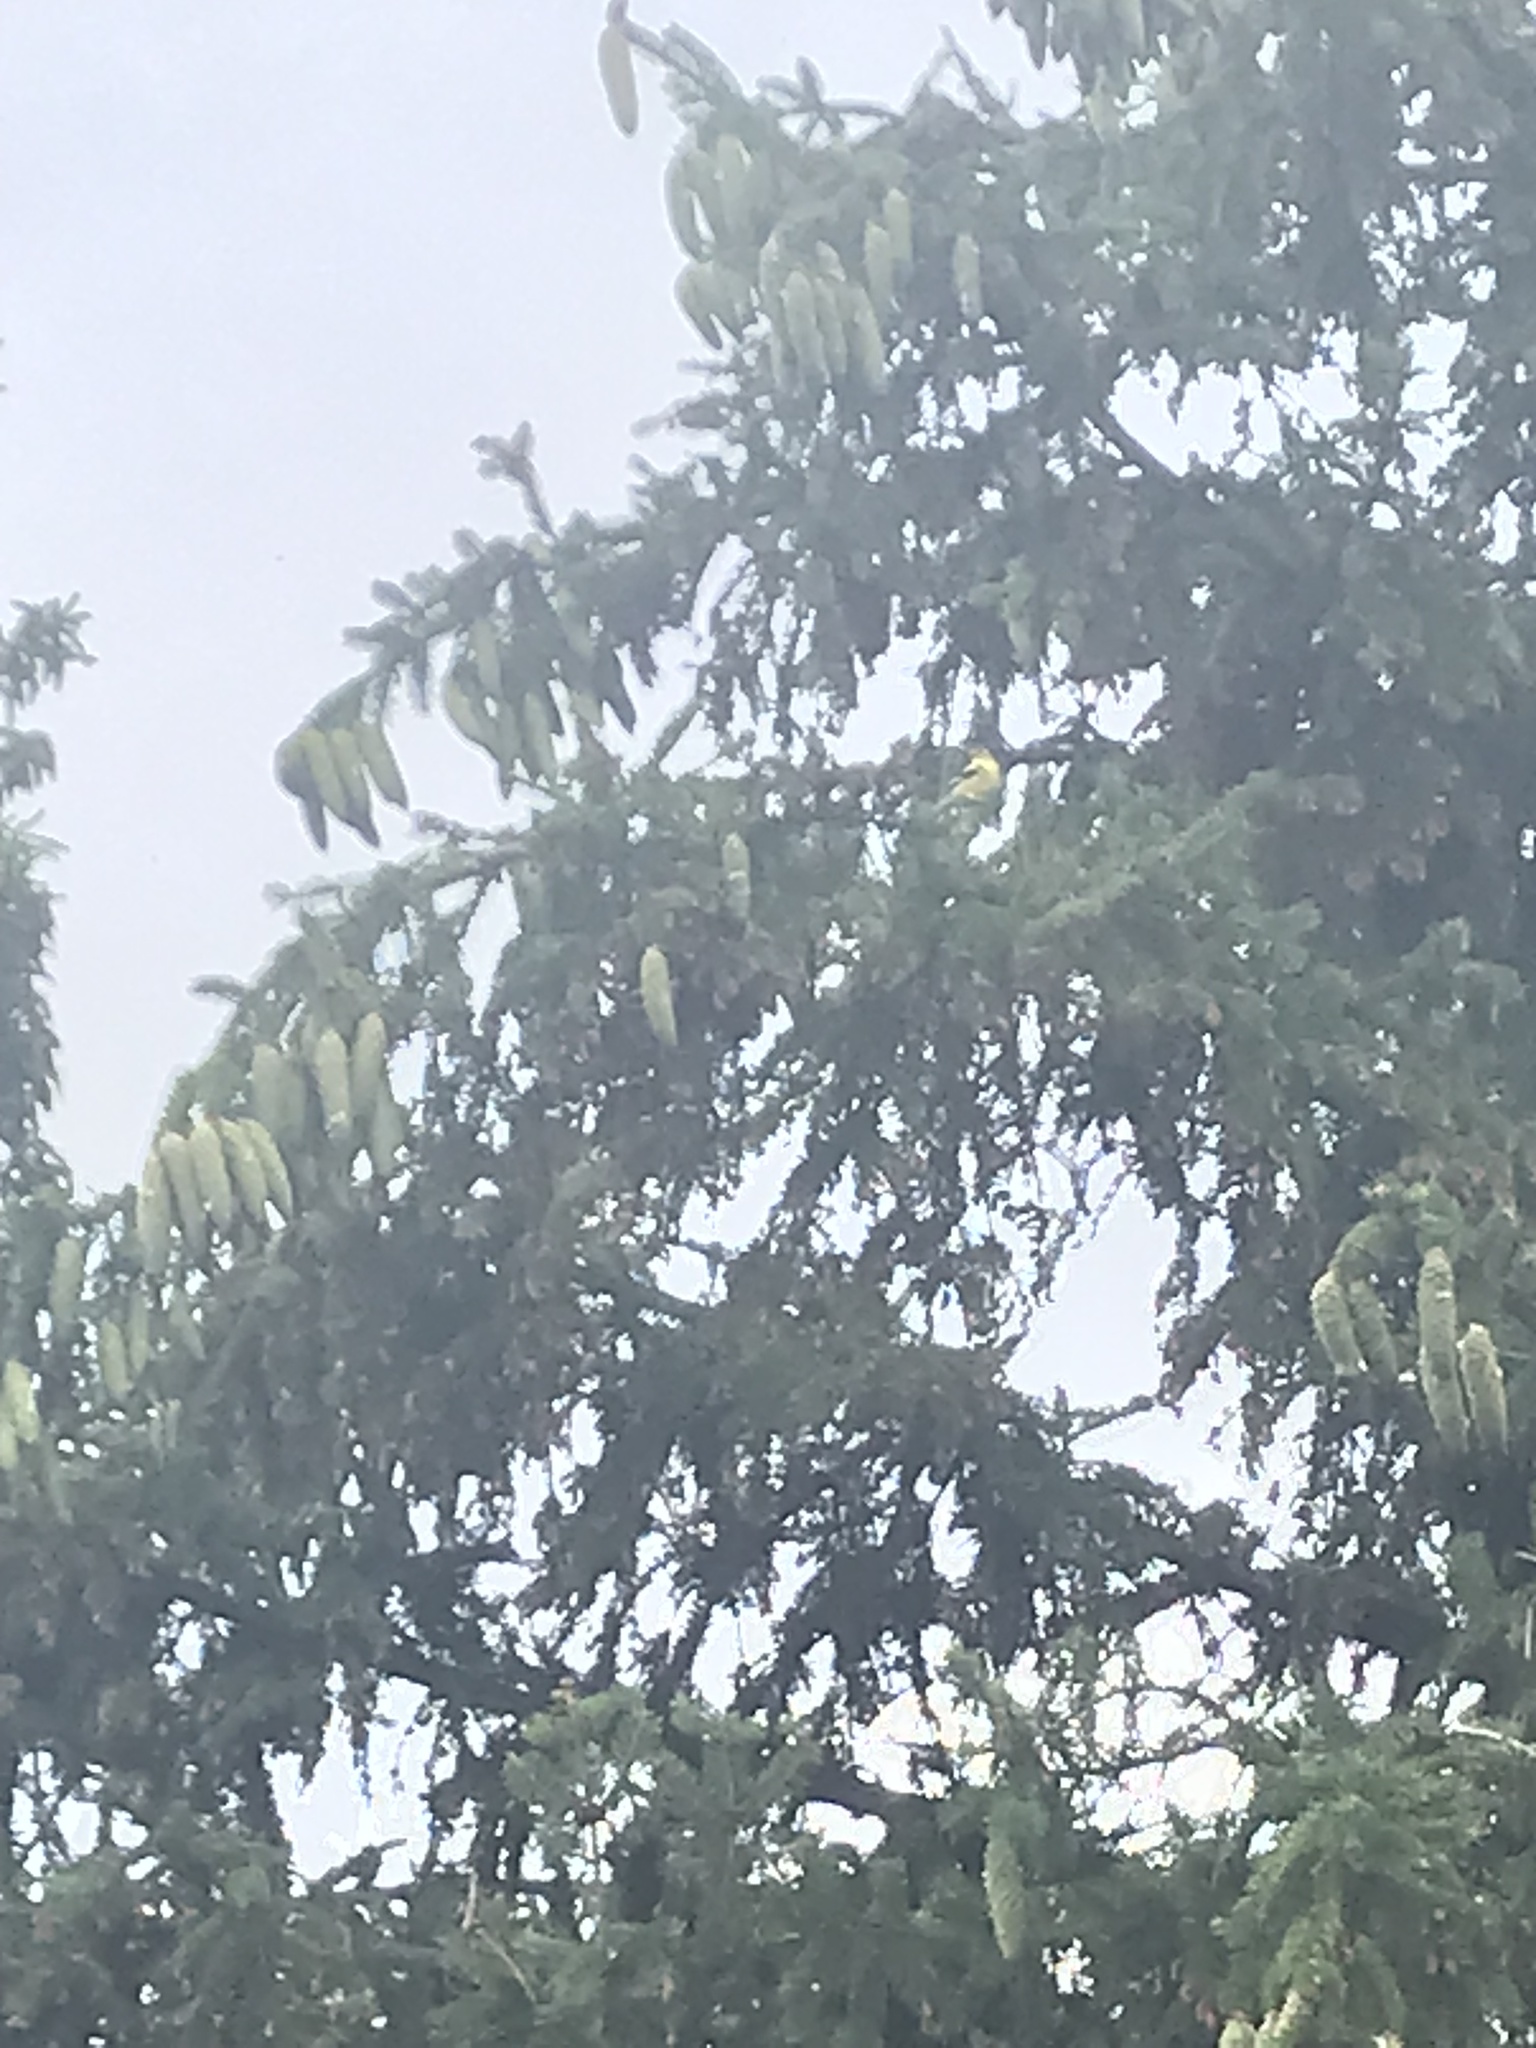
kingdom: Animalia
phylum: Chordata
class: Aves
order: Passeriformes
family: Fringillidae
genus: Spinus
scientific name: Spinus tristis
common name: American goldfinch
